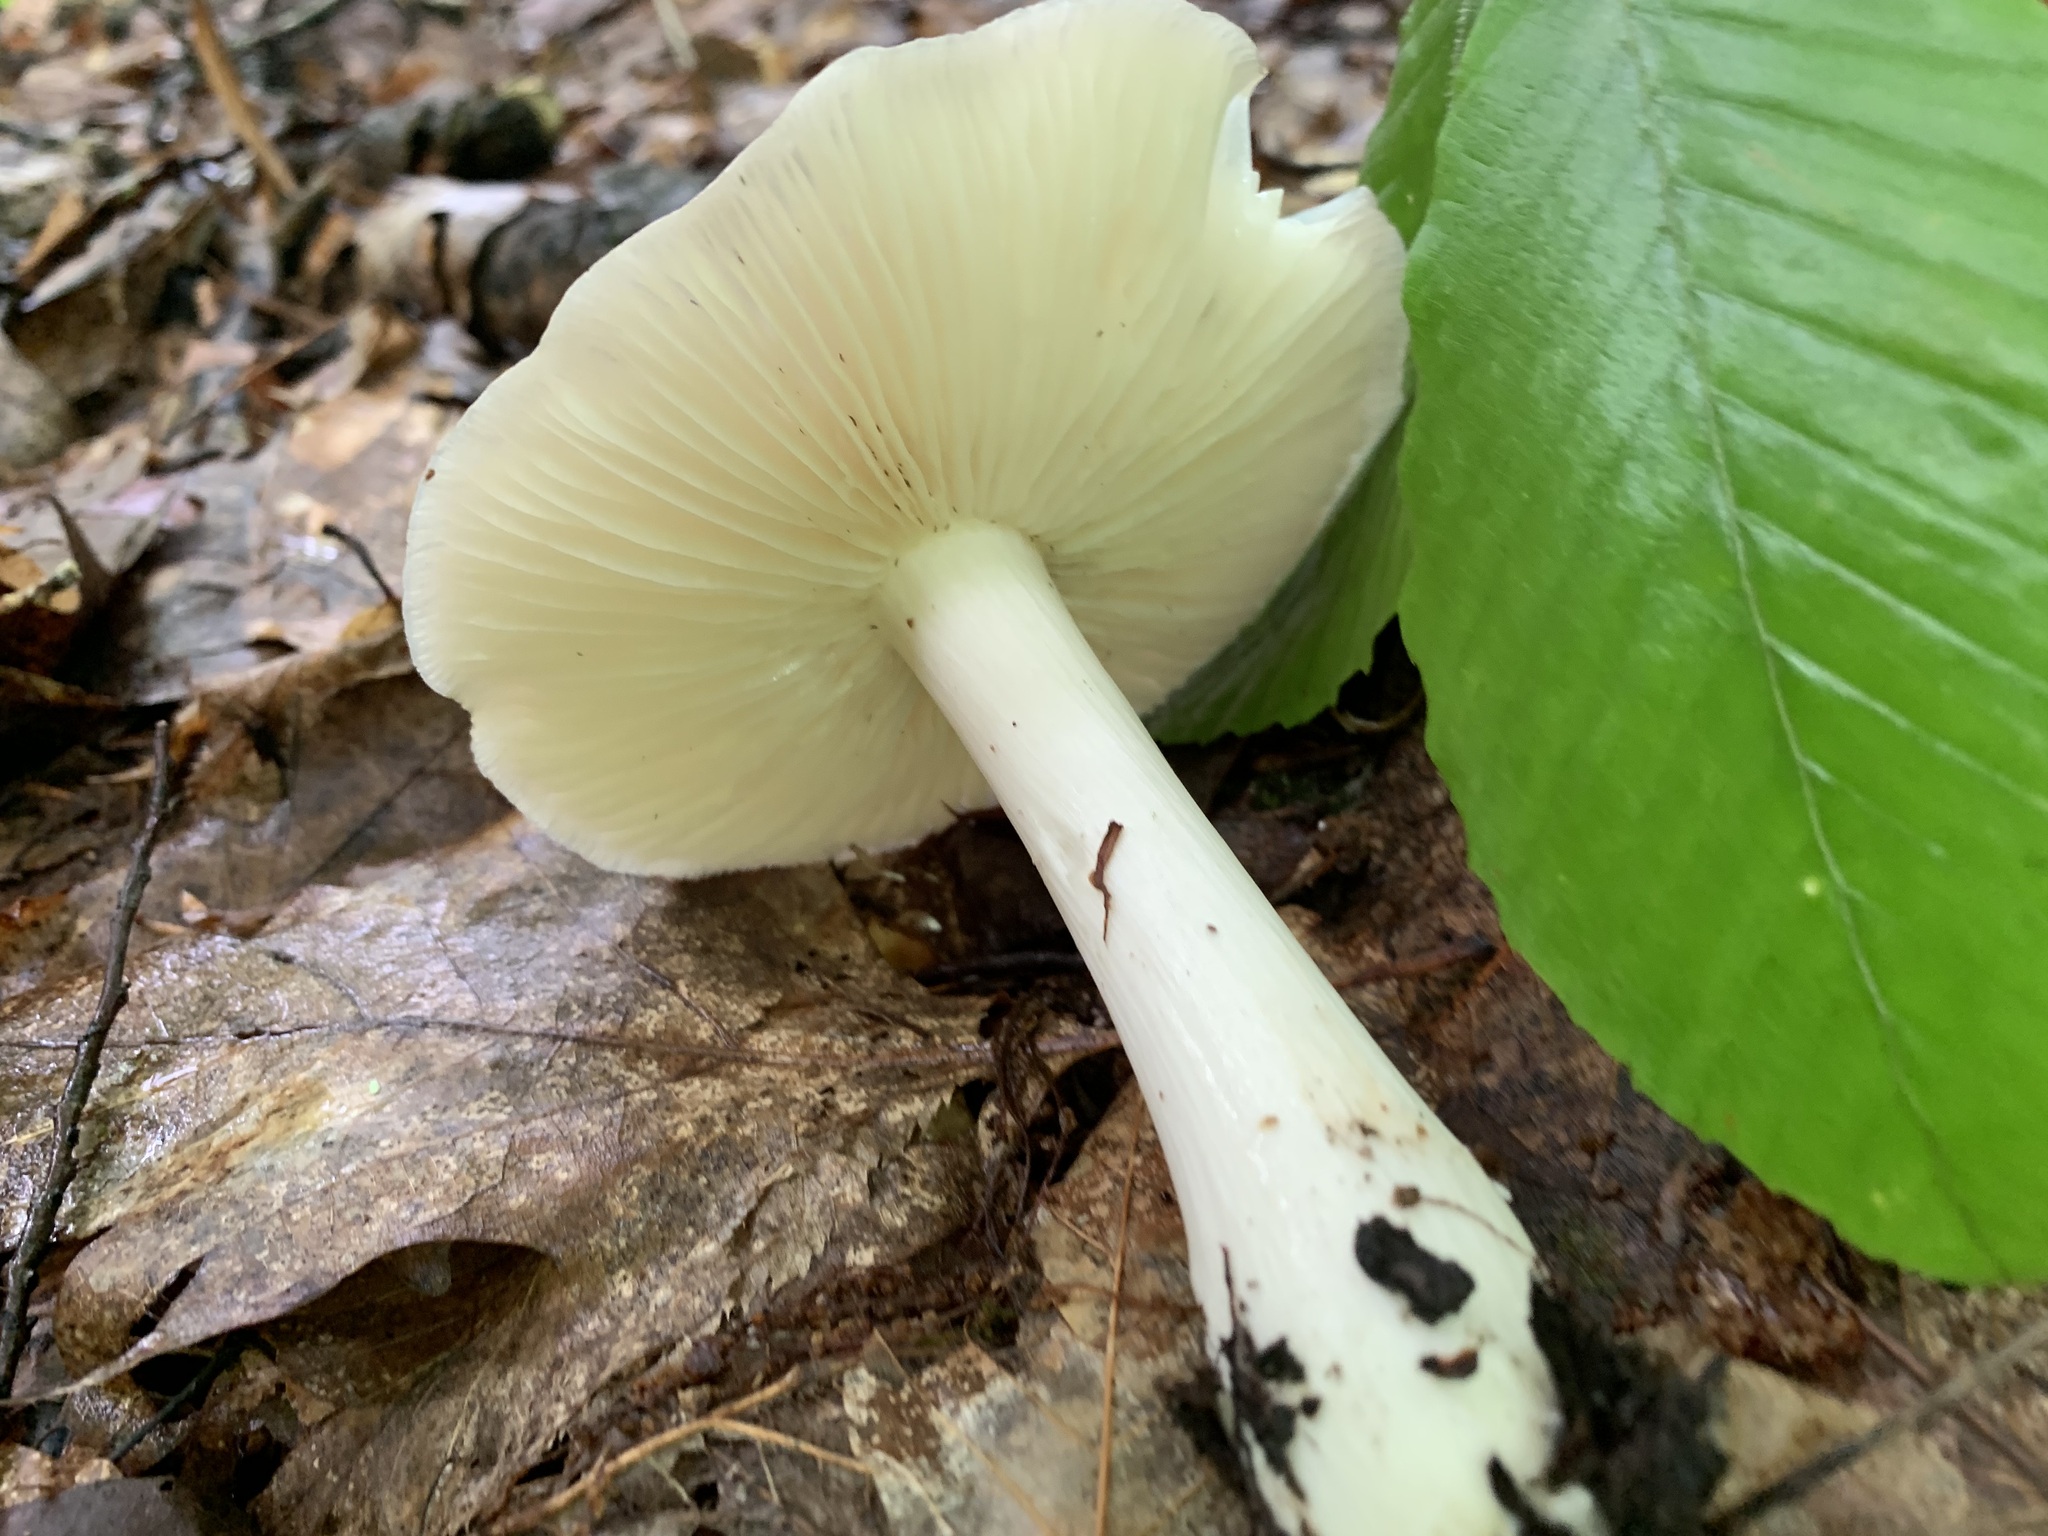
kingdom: Fungi
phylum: Basidiomycota
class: Agaricomycetes
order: Agaricales
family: Tricholomataceae
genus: Megacollybia
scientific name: Megacollybia rodmanii
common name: Eastern american platterful mushroom
